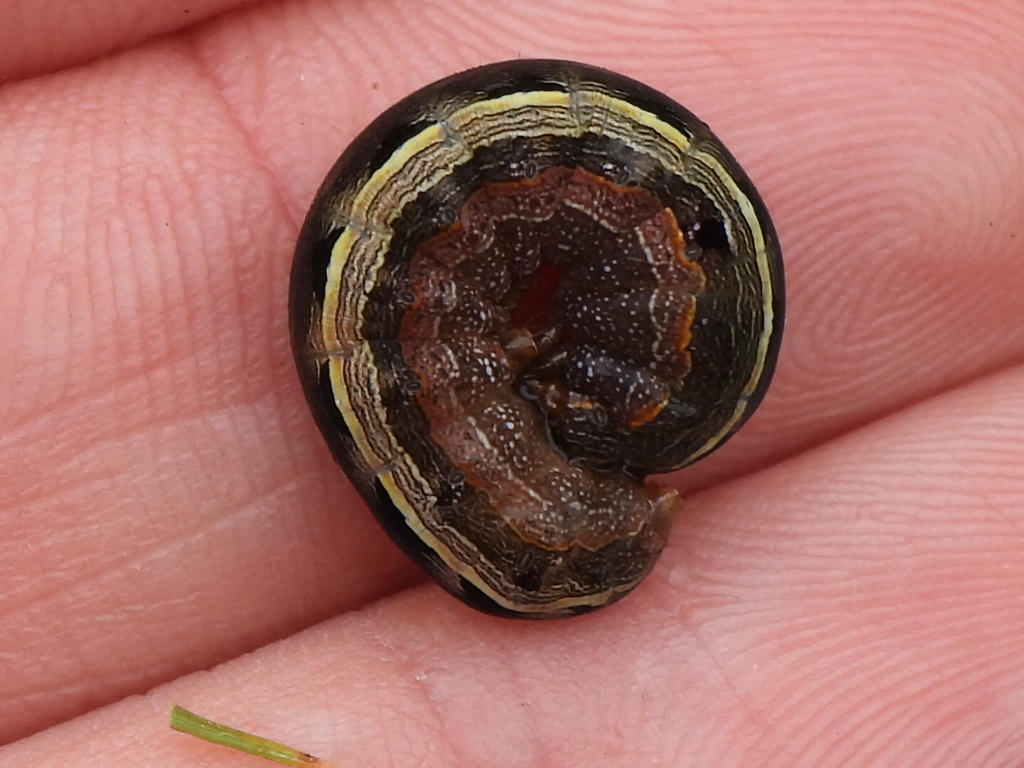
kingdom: Animalia
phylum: Arthropoda
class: Insecta
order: Lepidoptera
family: Noctuidae
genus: Spodoptera
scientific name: Spodoptera ornithogalli
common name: Yellow-striped armyworm
